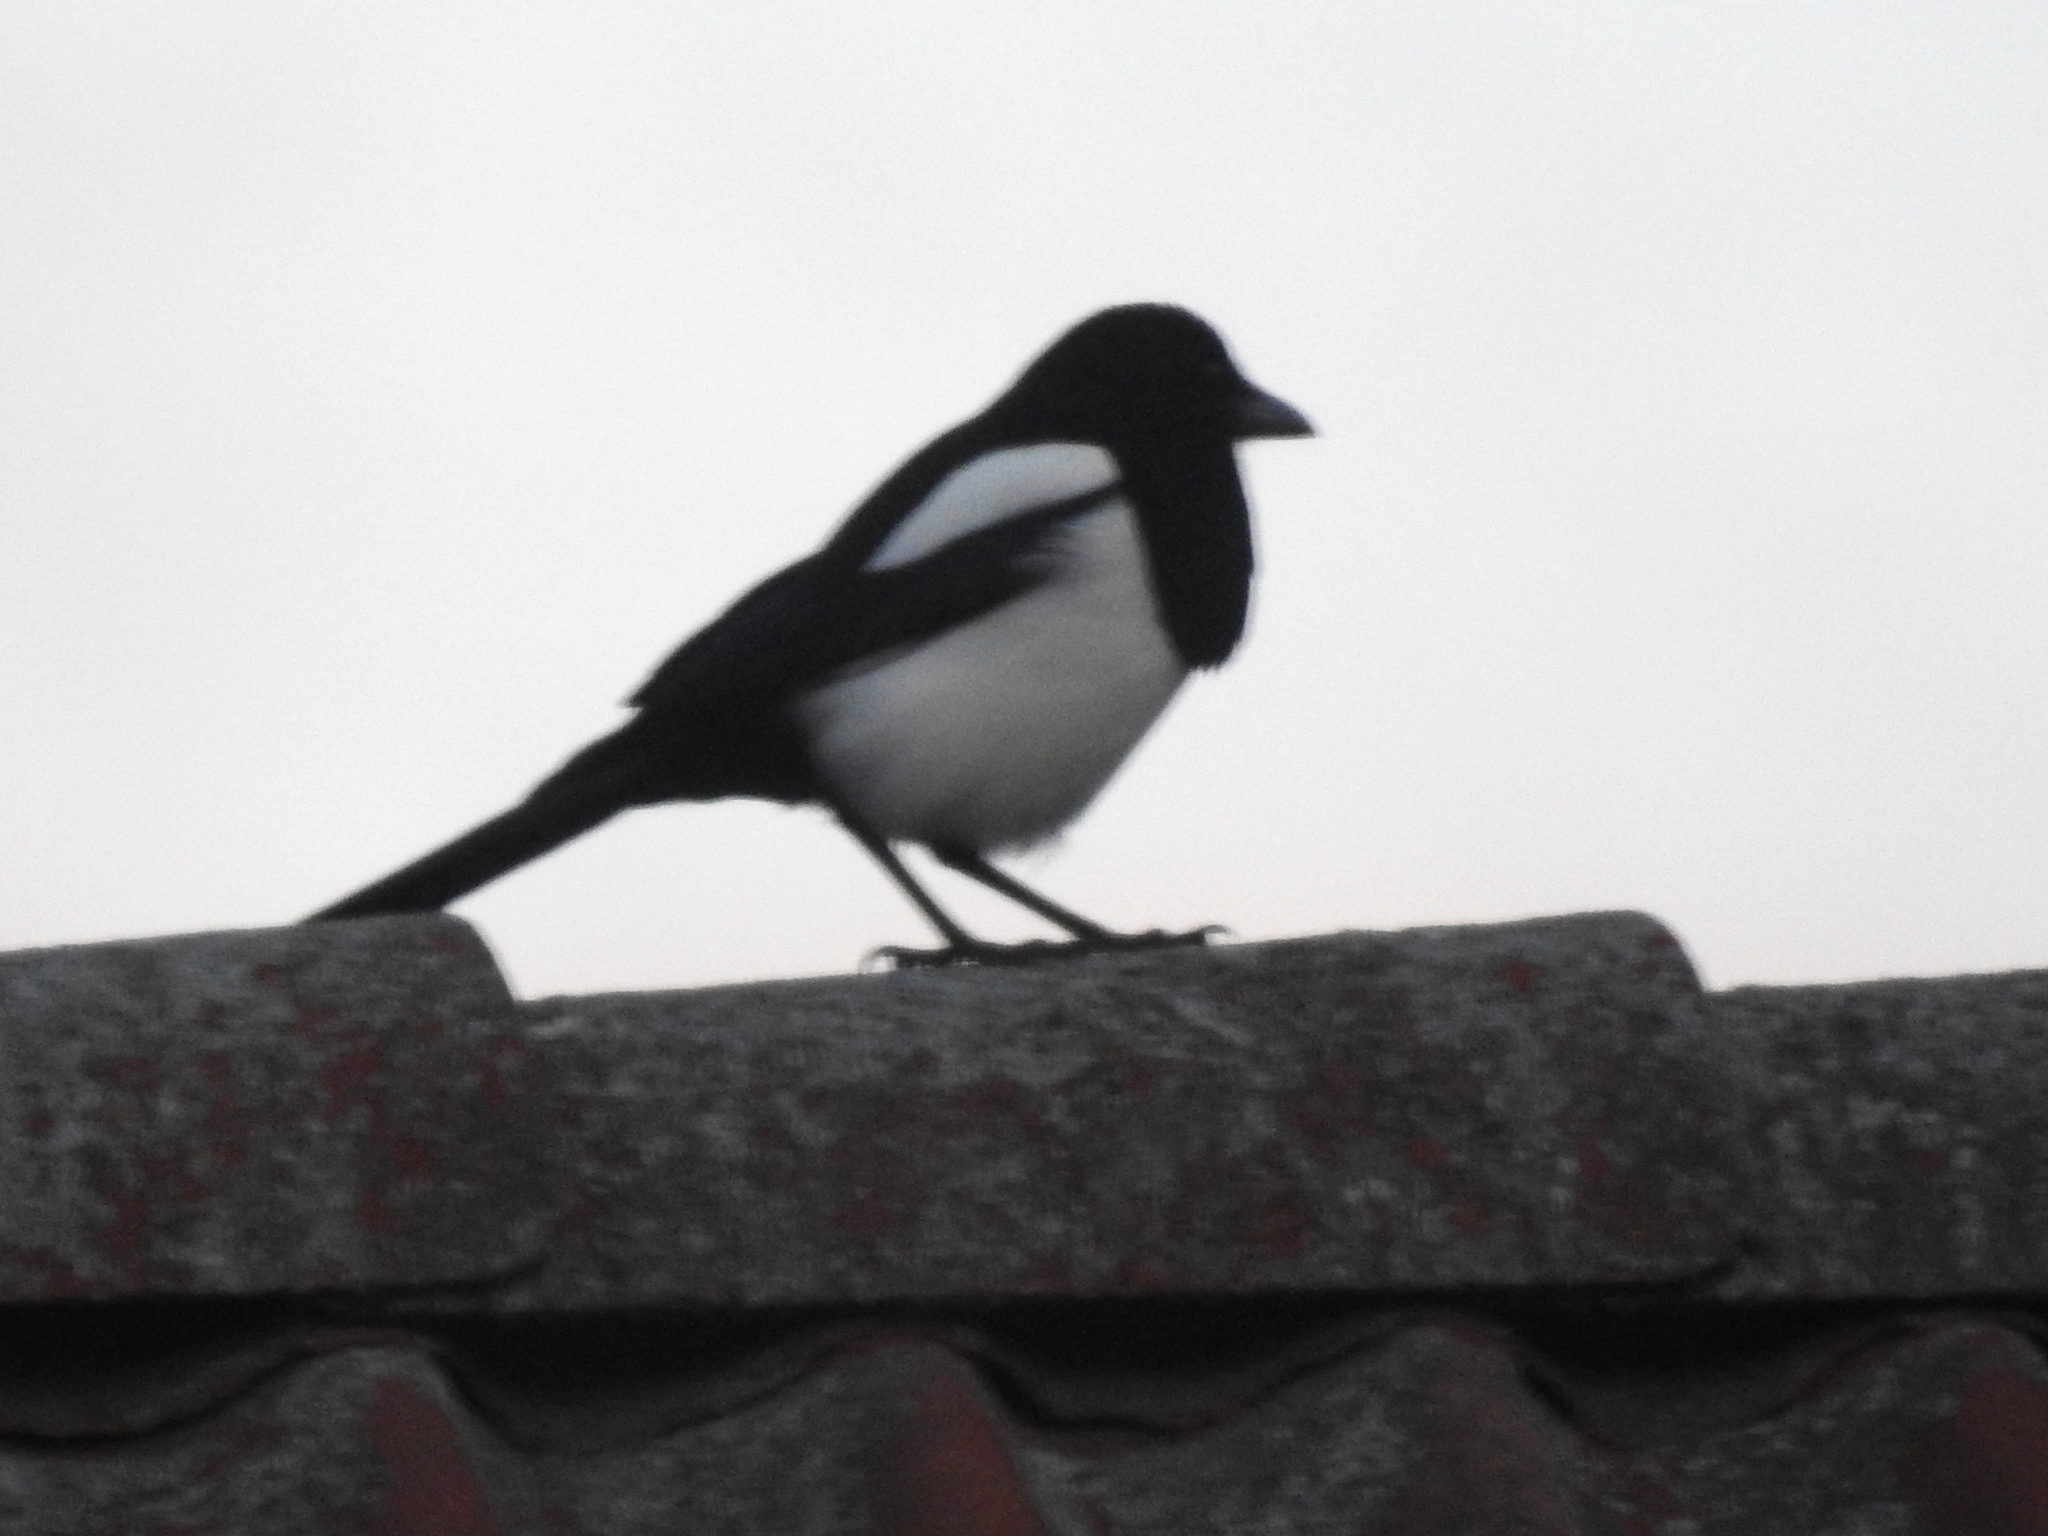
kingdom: Animalia
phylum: Chordata
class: Aves
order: Passeriformes
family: Corvidae
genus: Pica
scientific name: Pica pica
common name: Eurasian magpie
